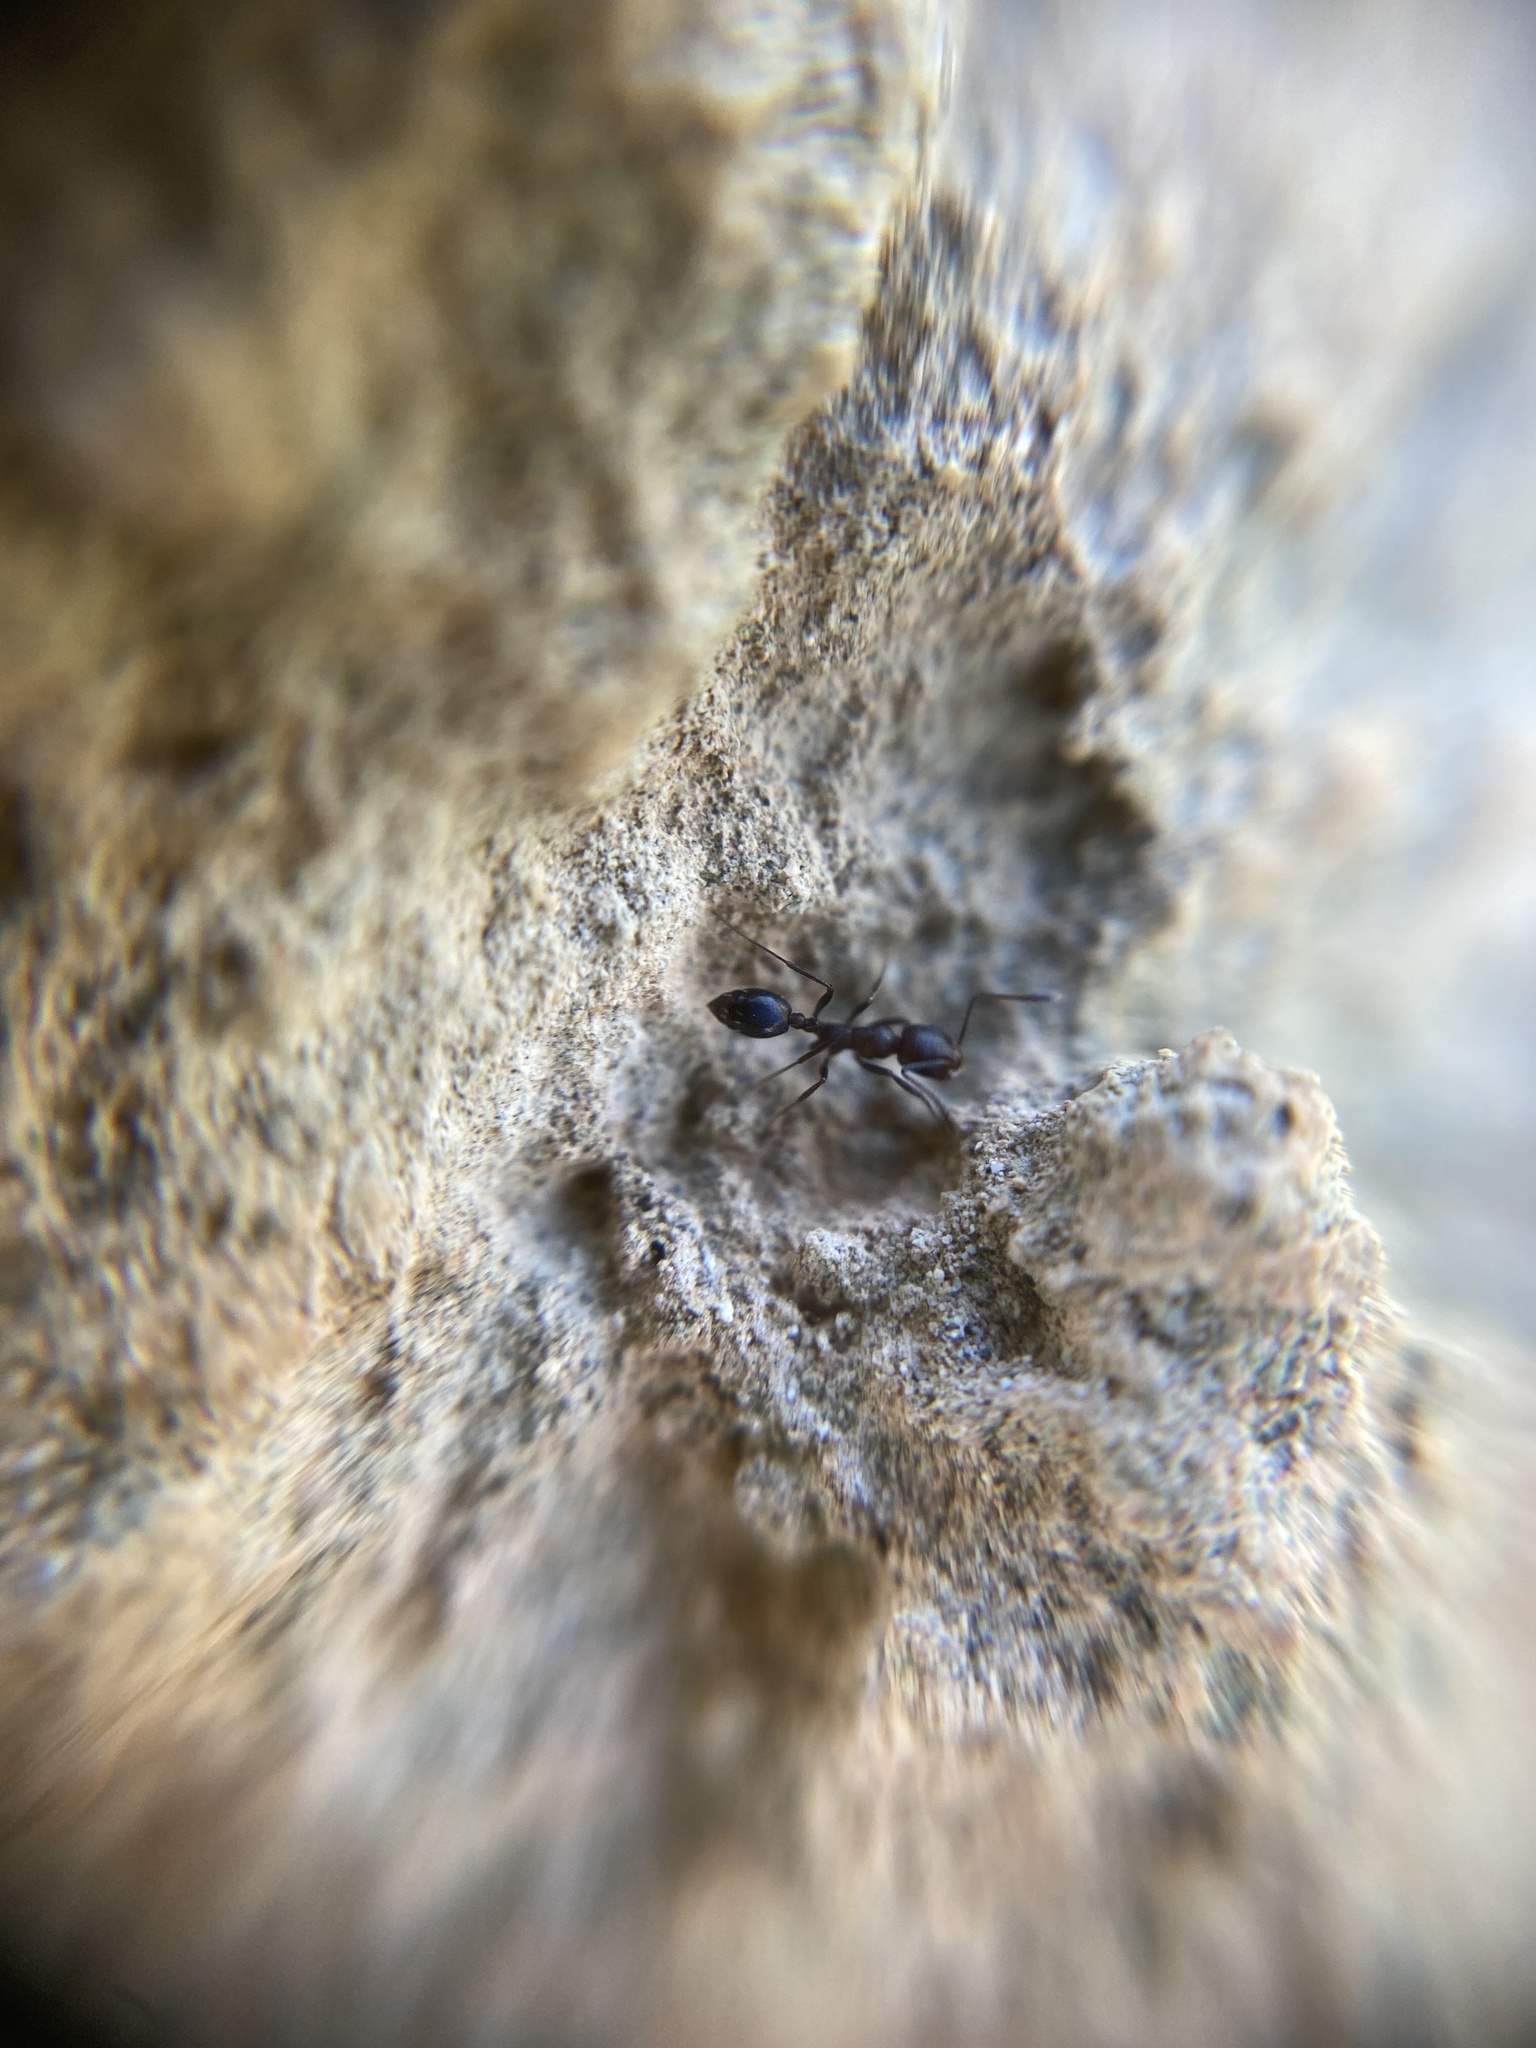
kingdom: Animalia
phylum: Arthropoda
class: Insecta
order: Hymenoptera
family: Formicidae
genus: Monomorium
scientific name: Monomorium subopacum
